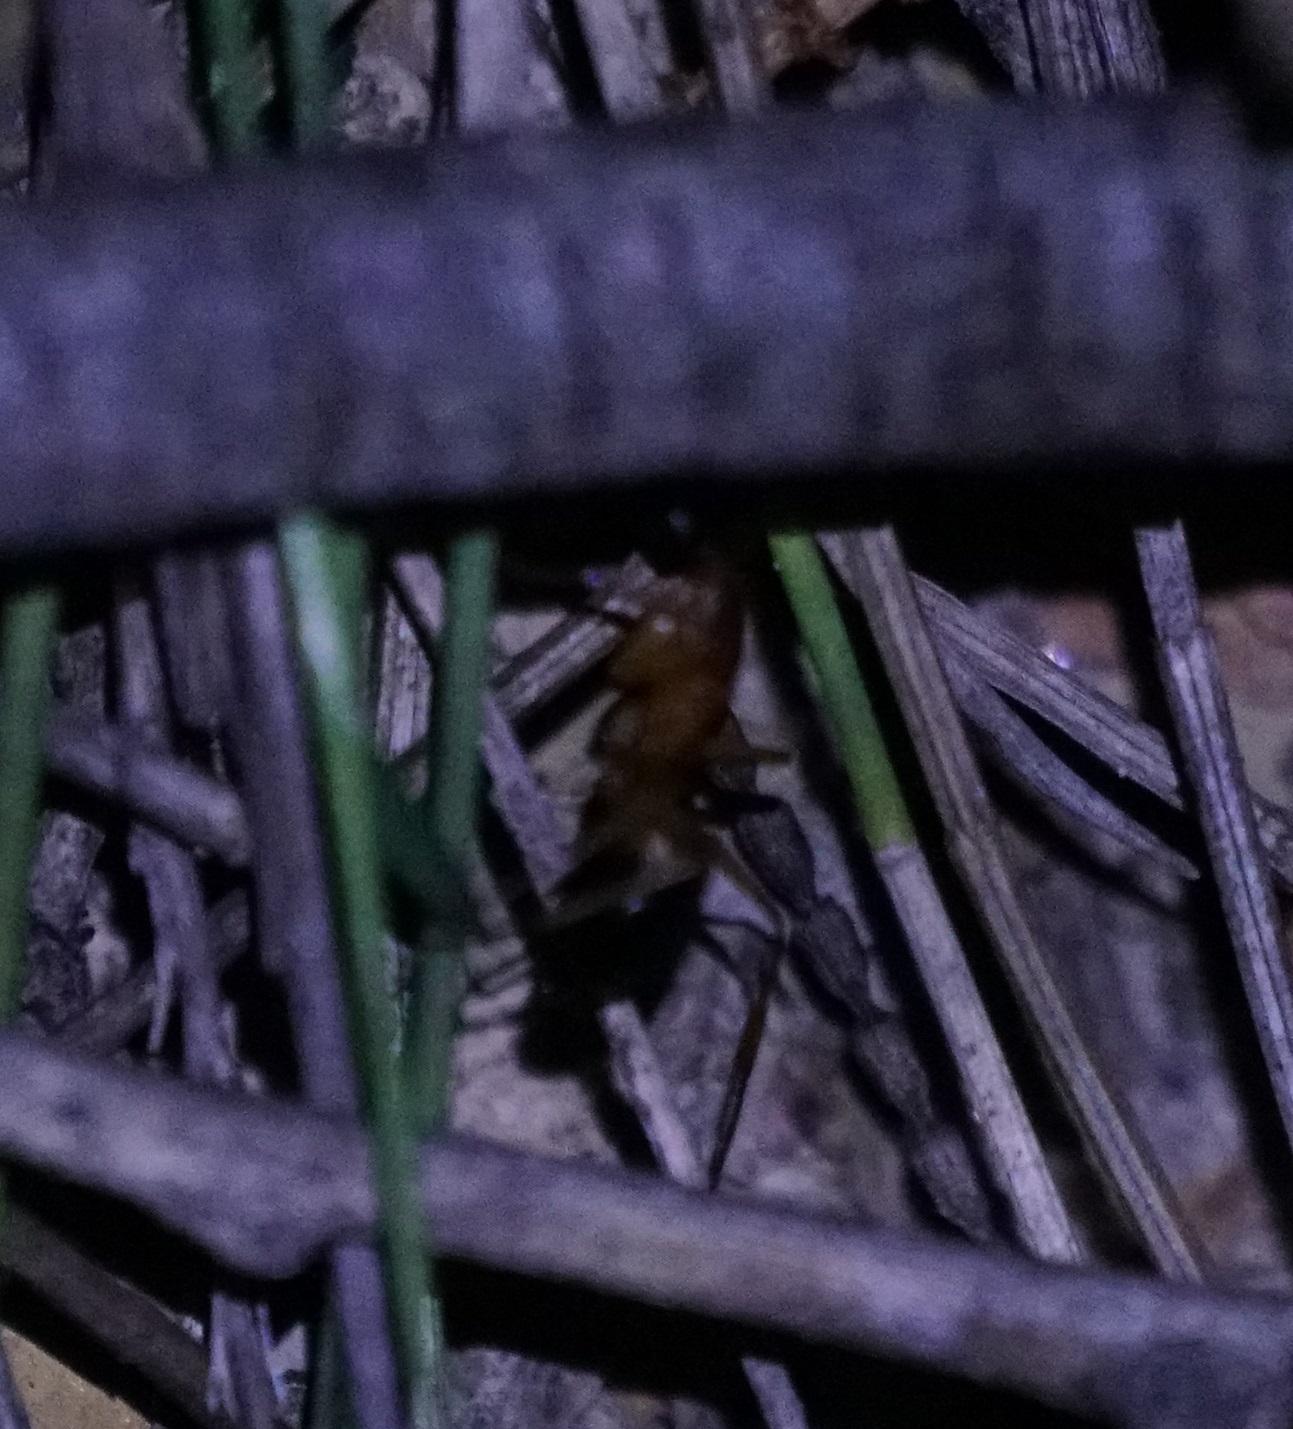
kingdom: Animalia
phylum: Arthropoda
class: Insecta
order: Hymenoptera
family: Formicidae
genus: Camponotus
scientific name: Camponotus consobrinus
